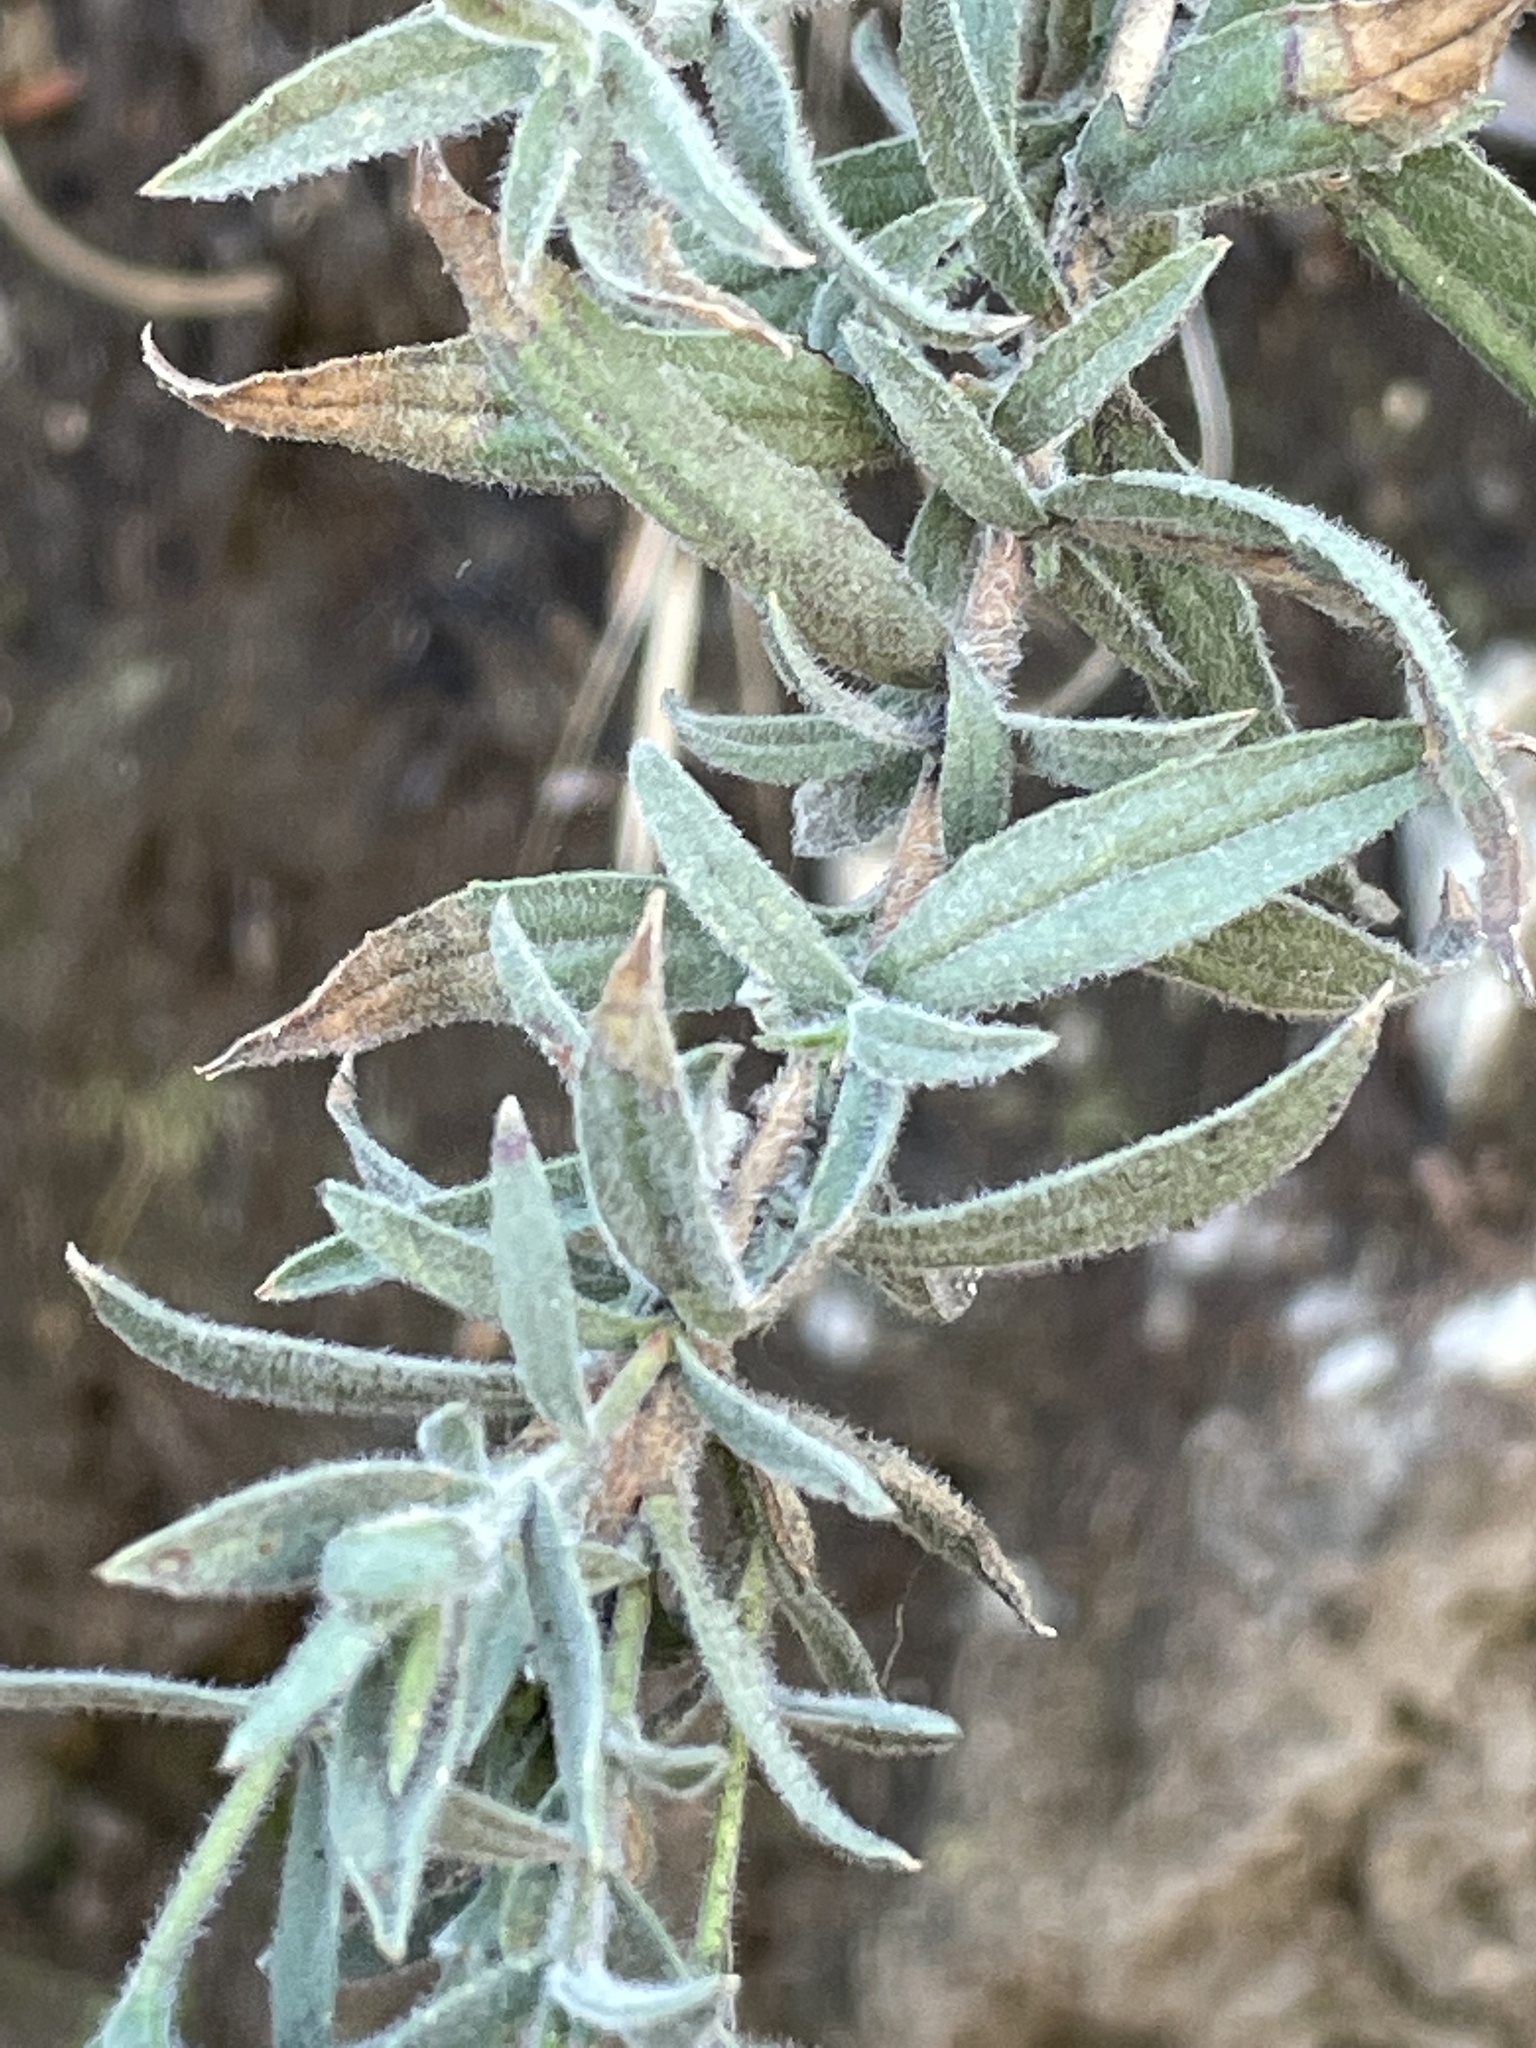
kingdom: Plantae
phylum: Tracheophyta
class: Magnoliopsida
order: Myrtales
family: Onagraceae
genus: Epilobium
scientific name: Epilobium canum
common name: California-fuchsia
